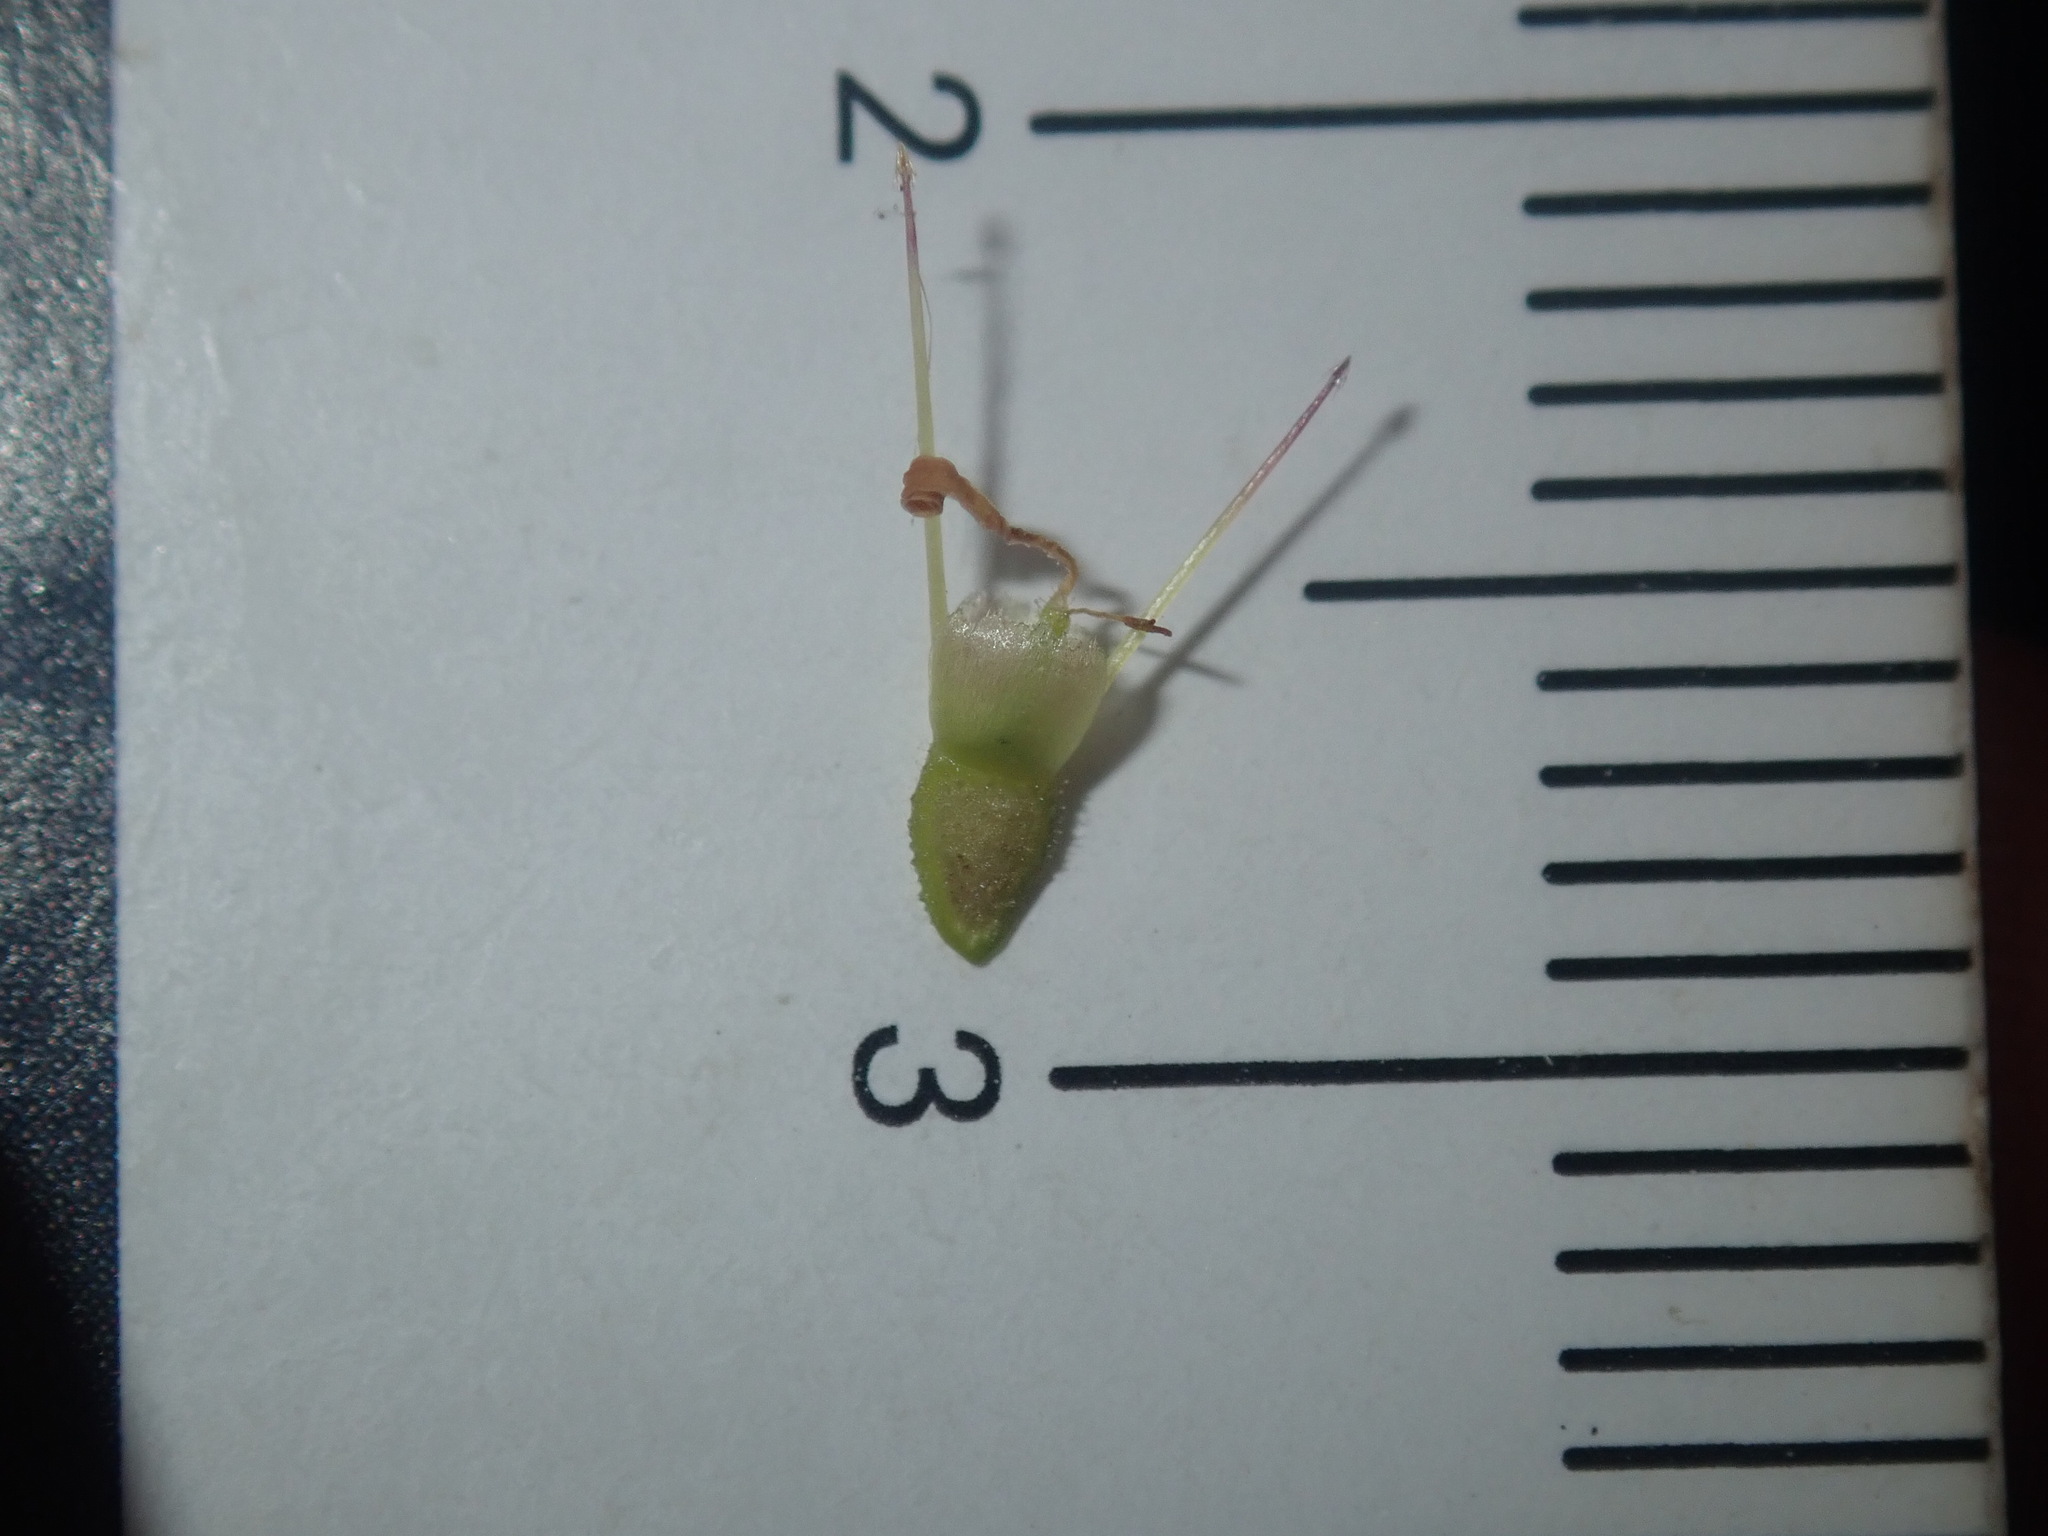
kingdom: Plantae
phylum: Tracheophyta
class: Magnoliopsida
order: Asterales
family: Asteraceae
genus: Calotis
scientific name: Calotis dentex
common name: White bur-daisy
